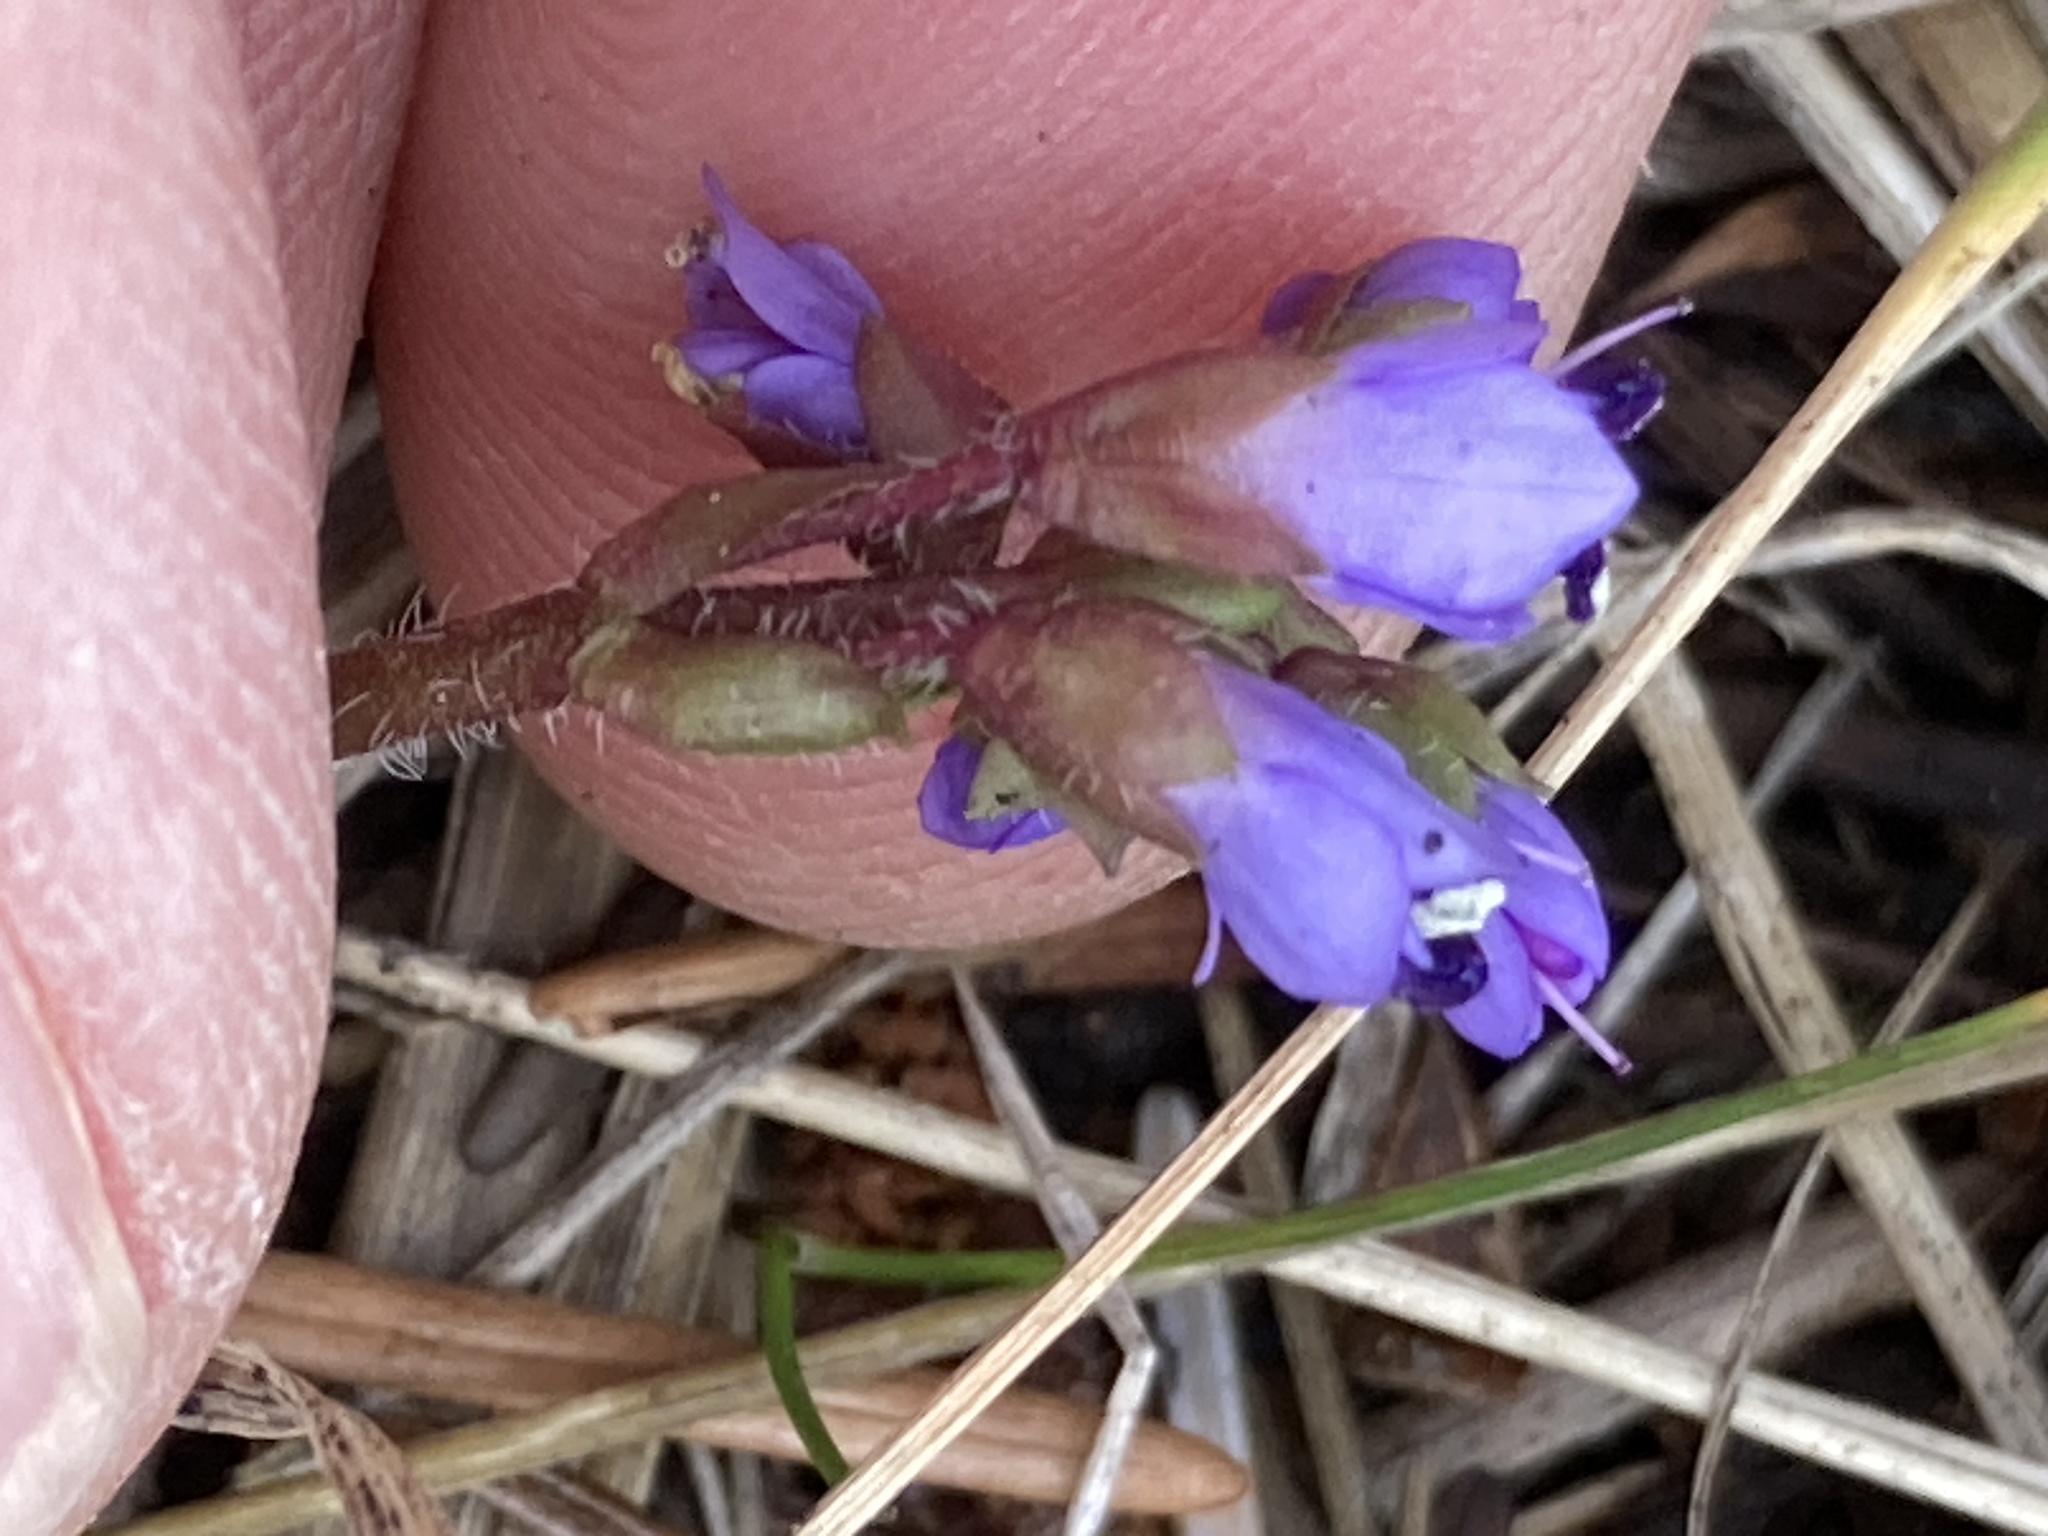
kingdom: Plantae
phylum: Tracheophyta
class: Magnoliopsida
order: Lamiales
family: Plantaginaceae
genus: Synthyris
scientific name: Synthyris reniformis
